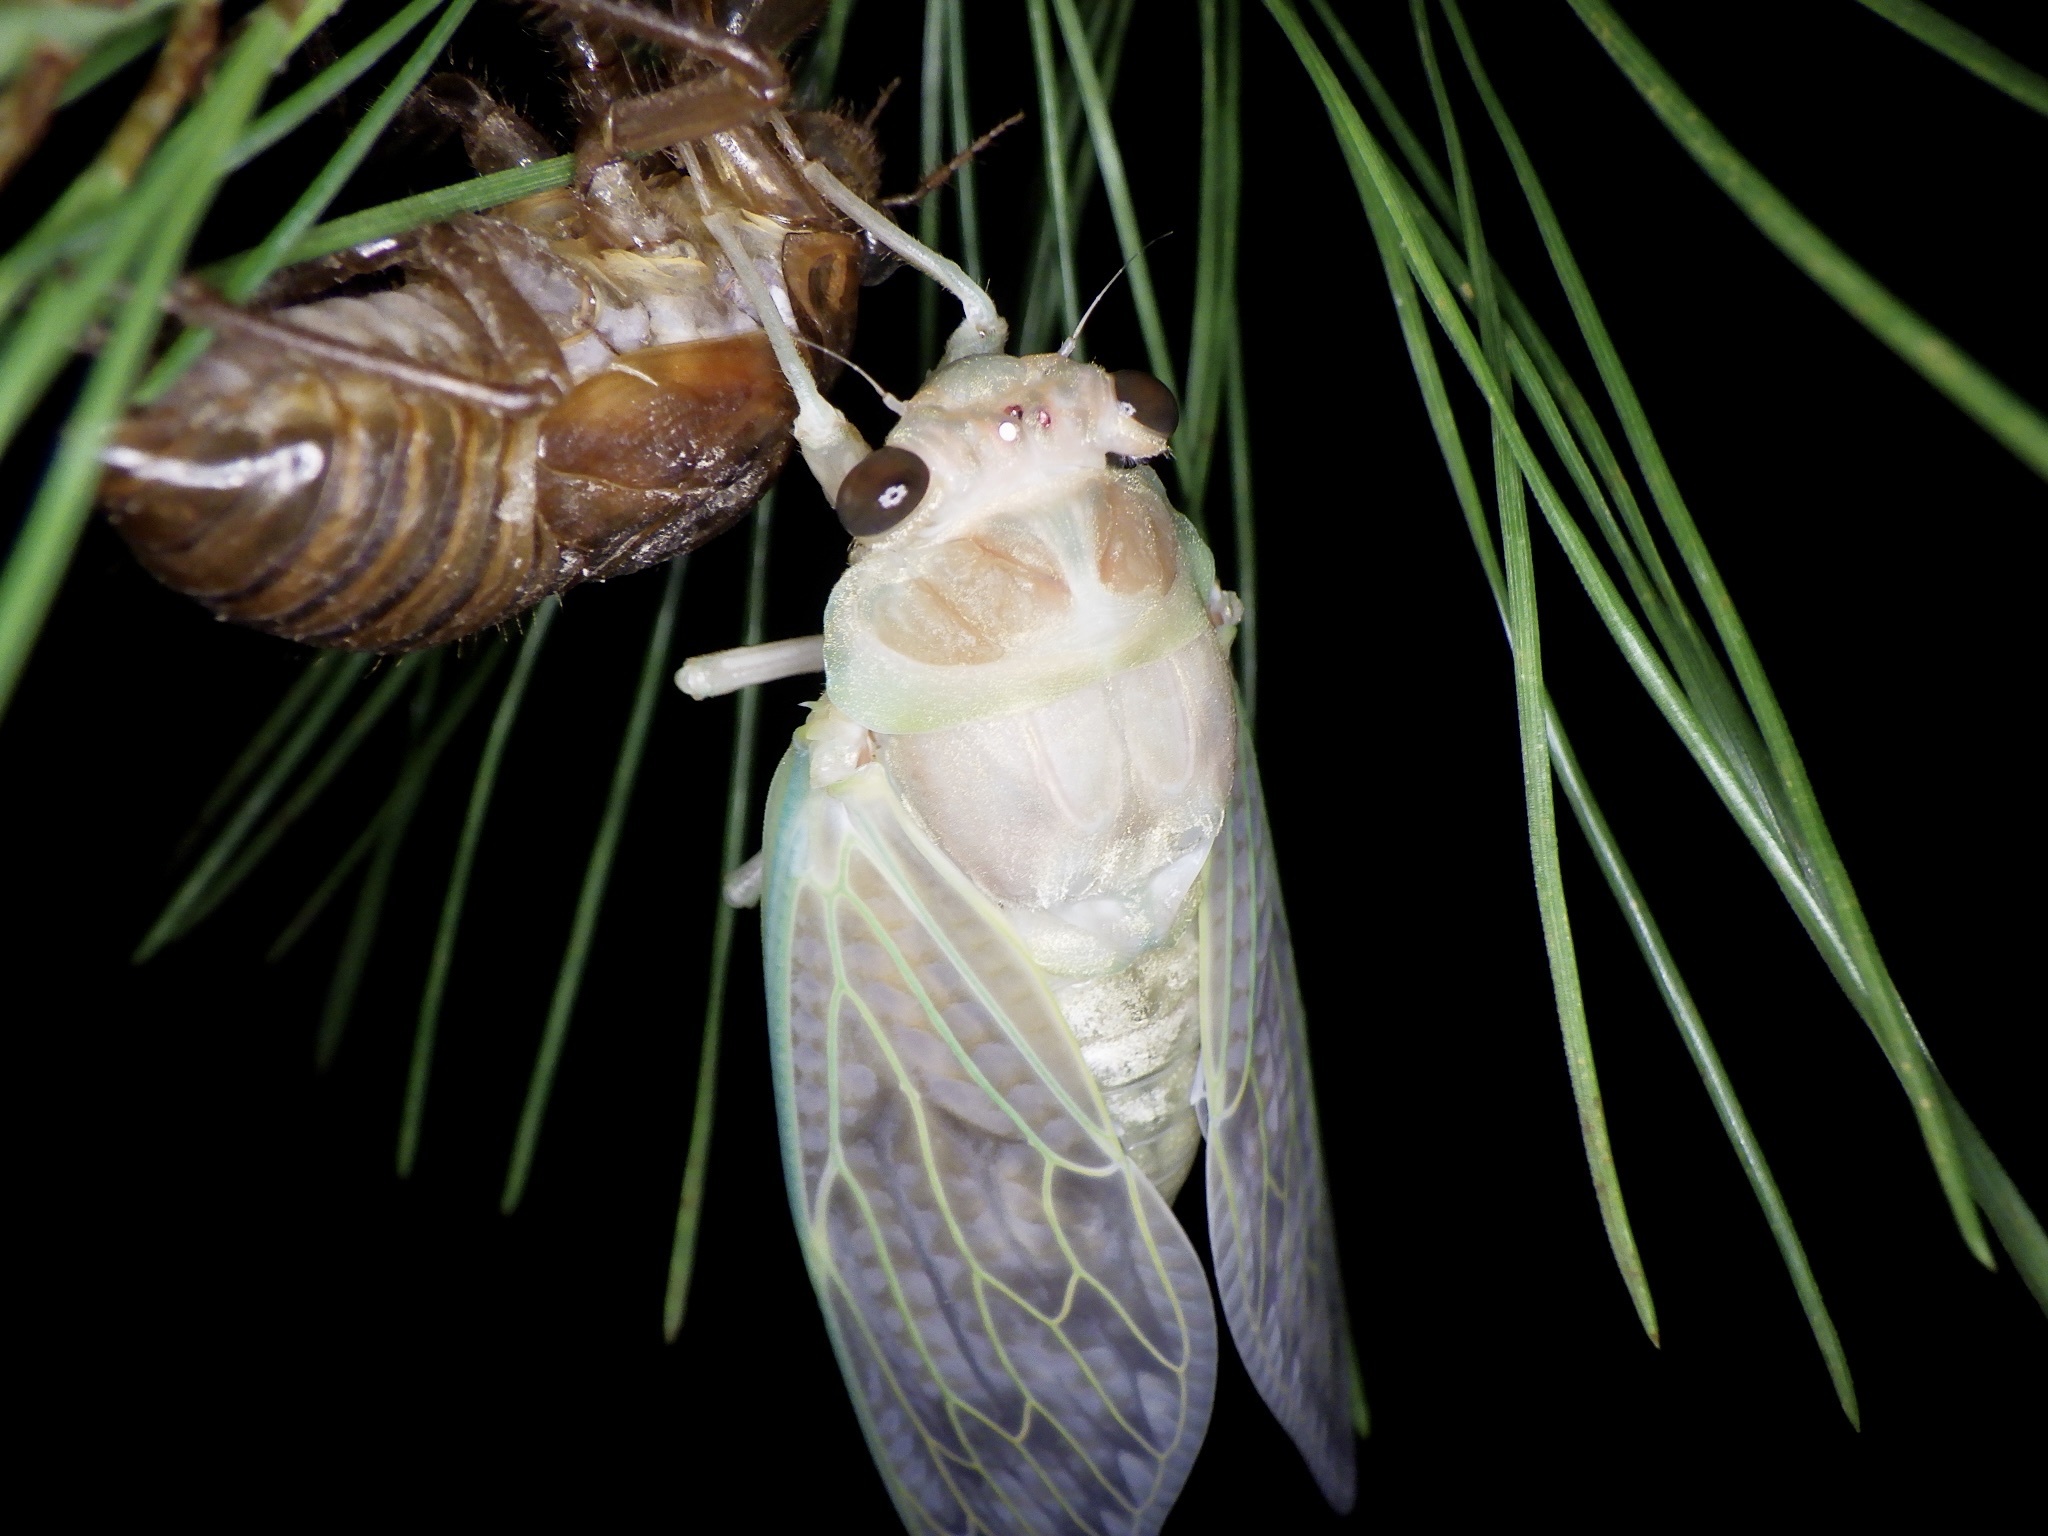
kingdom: Animalia
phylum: Arthropoda
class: Insecta
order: Hemiptera
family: Cicadidae
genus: Graptopsaltria
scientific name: Graptopsaltria nigrofuscata
